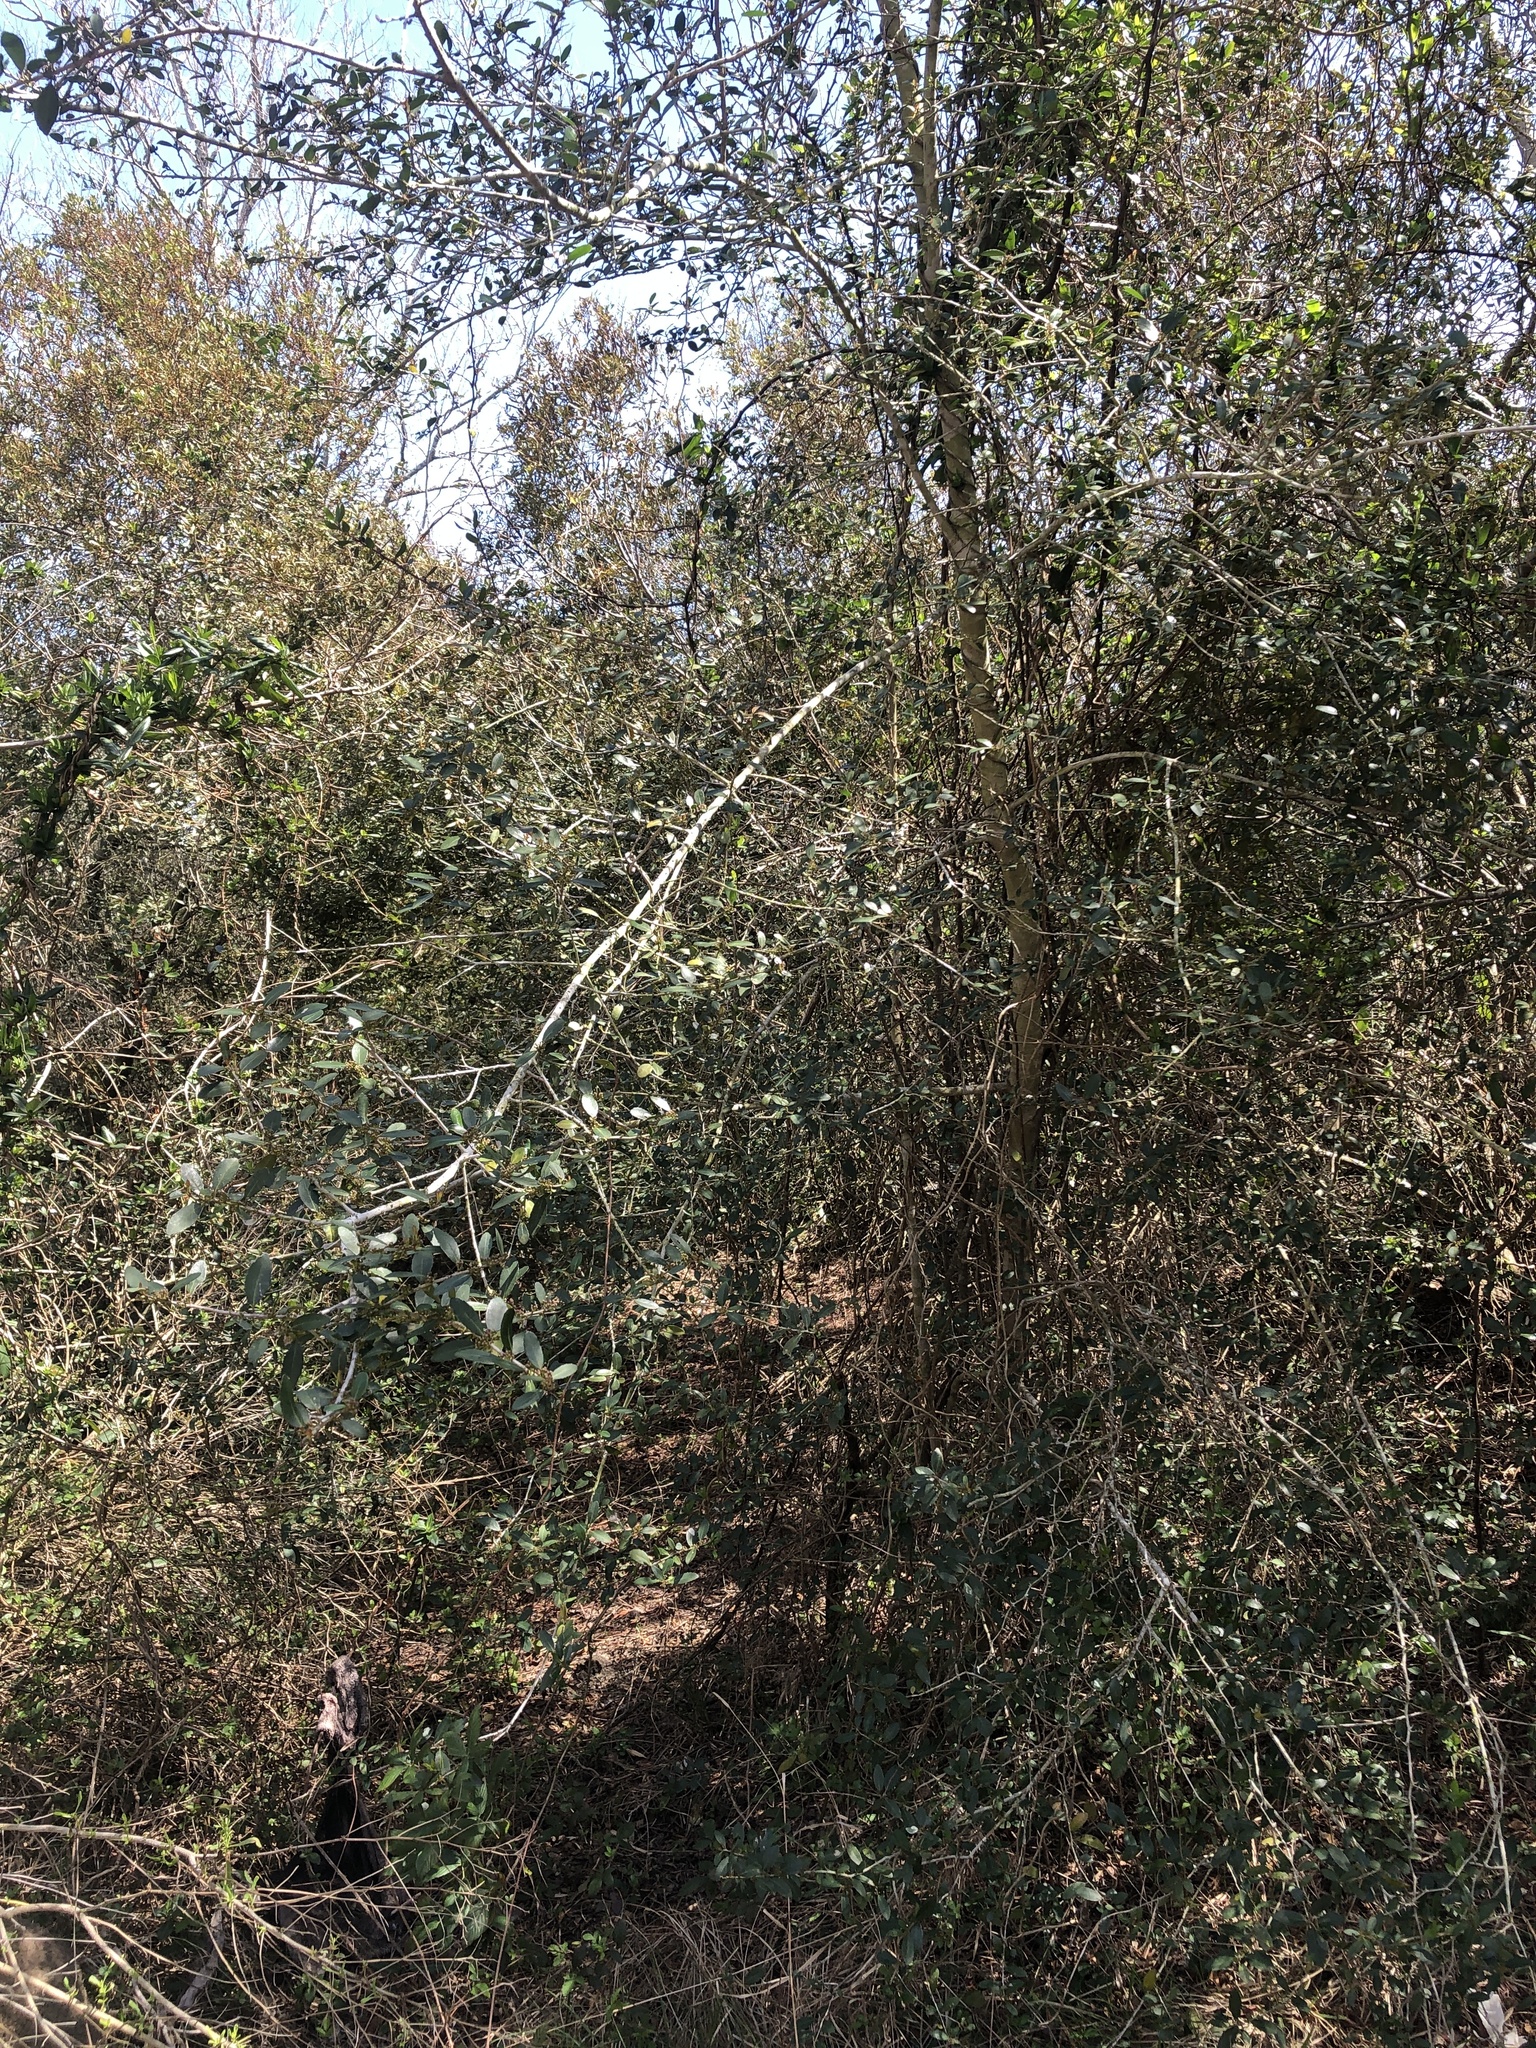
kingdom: Plantae
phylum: Tracheophyta
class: Magnoliopsida
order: Aquifoliales
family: Aquifoliaceae
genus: Ilex
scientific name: Ilex vomitoria
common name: Yaupon holly
